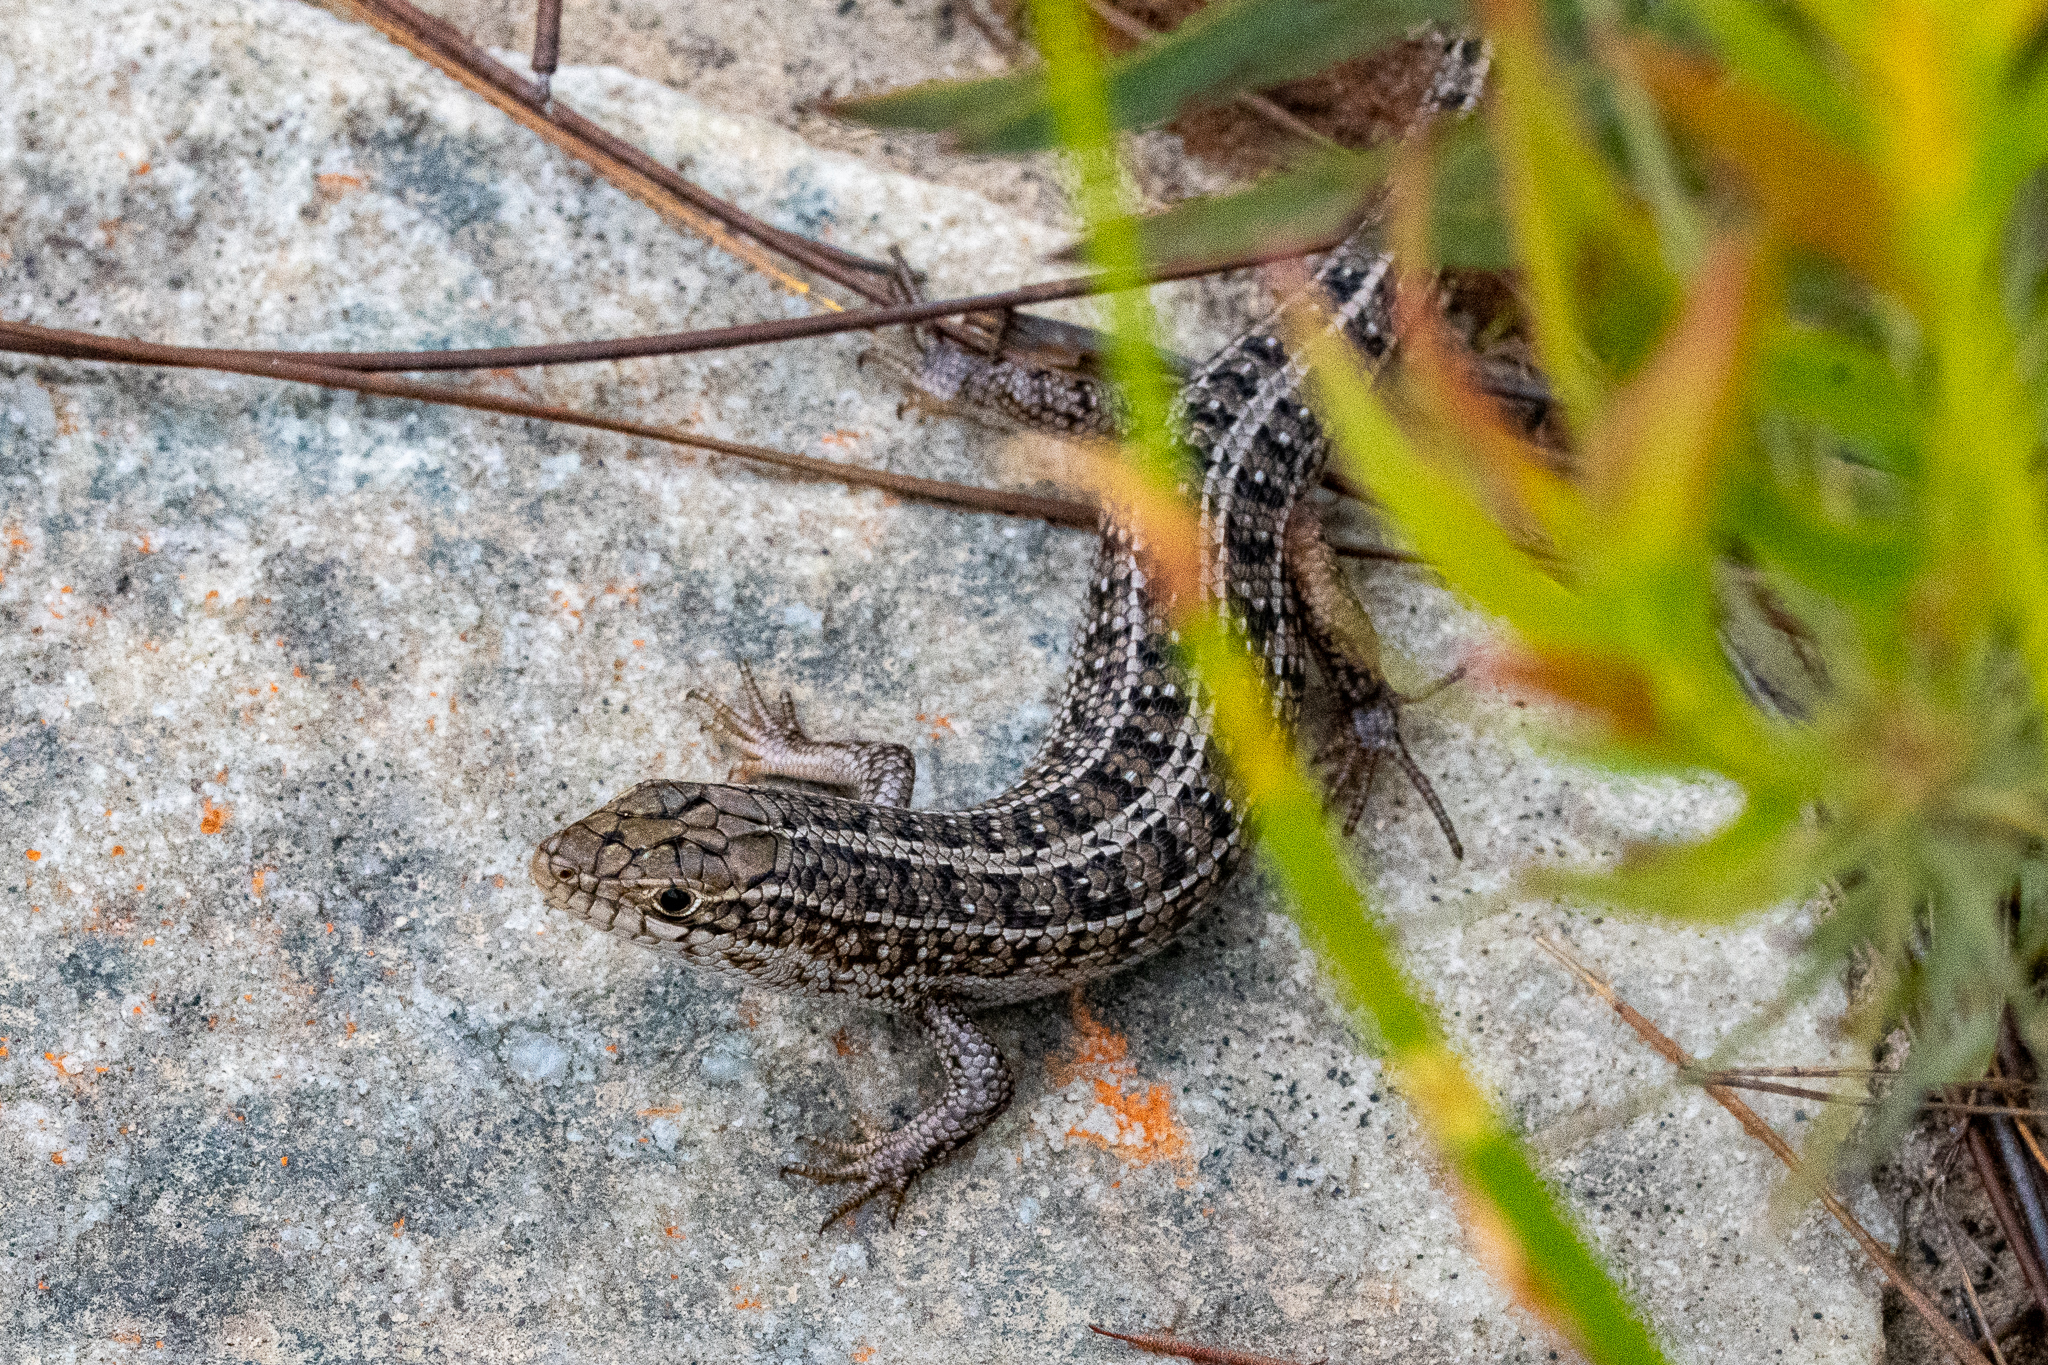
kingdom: Animalia
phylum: Chordata
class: Squamata
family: Scincidae
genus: Trachylepis
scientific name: Trachylepis capensis
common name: Cape skink
